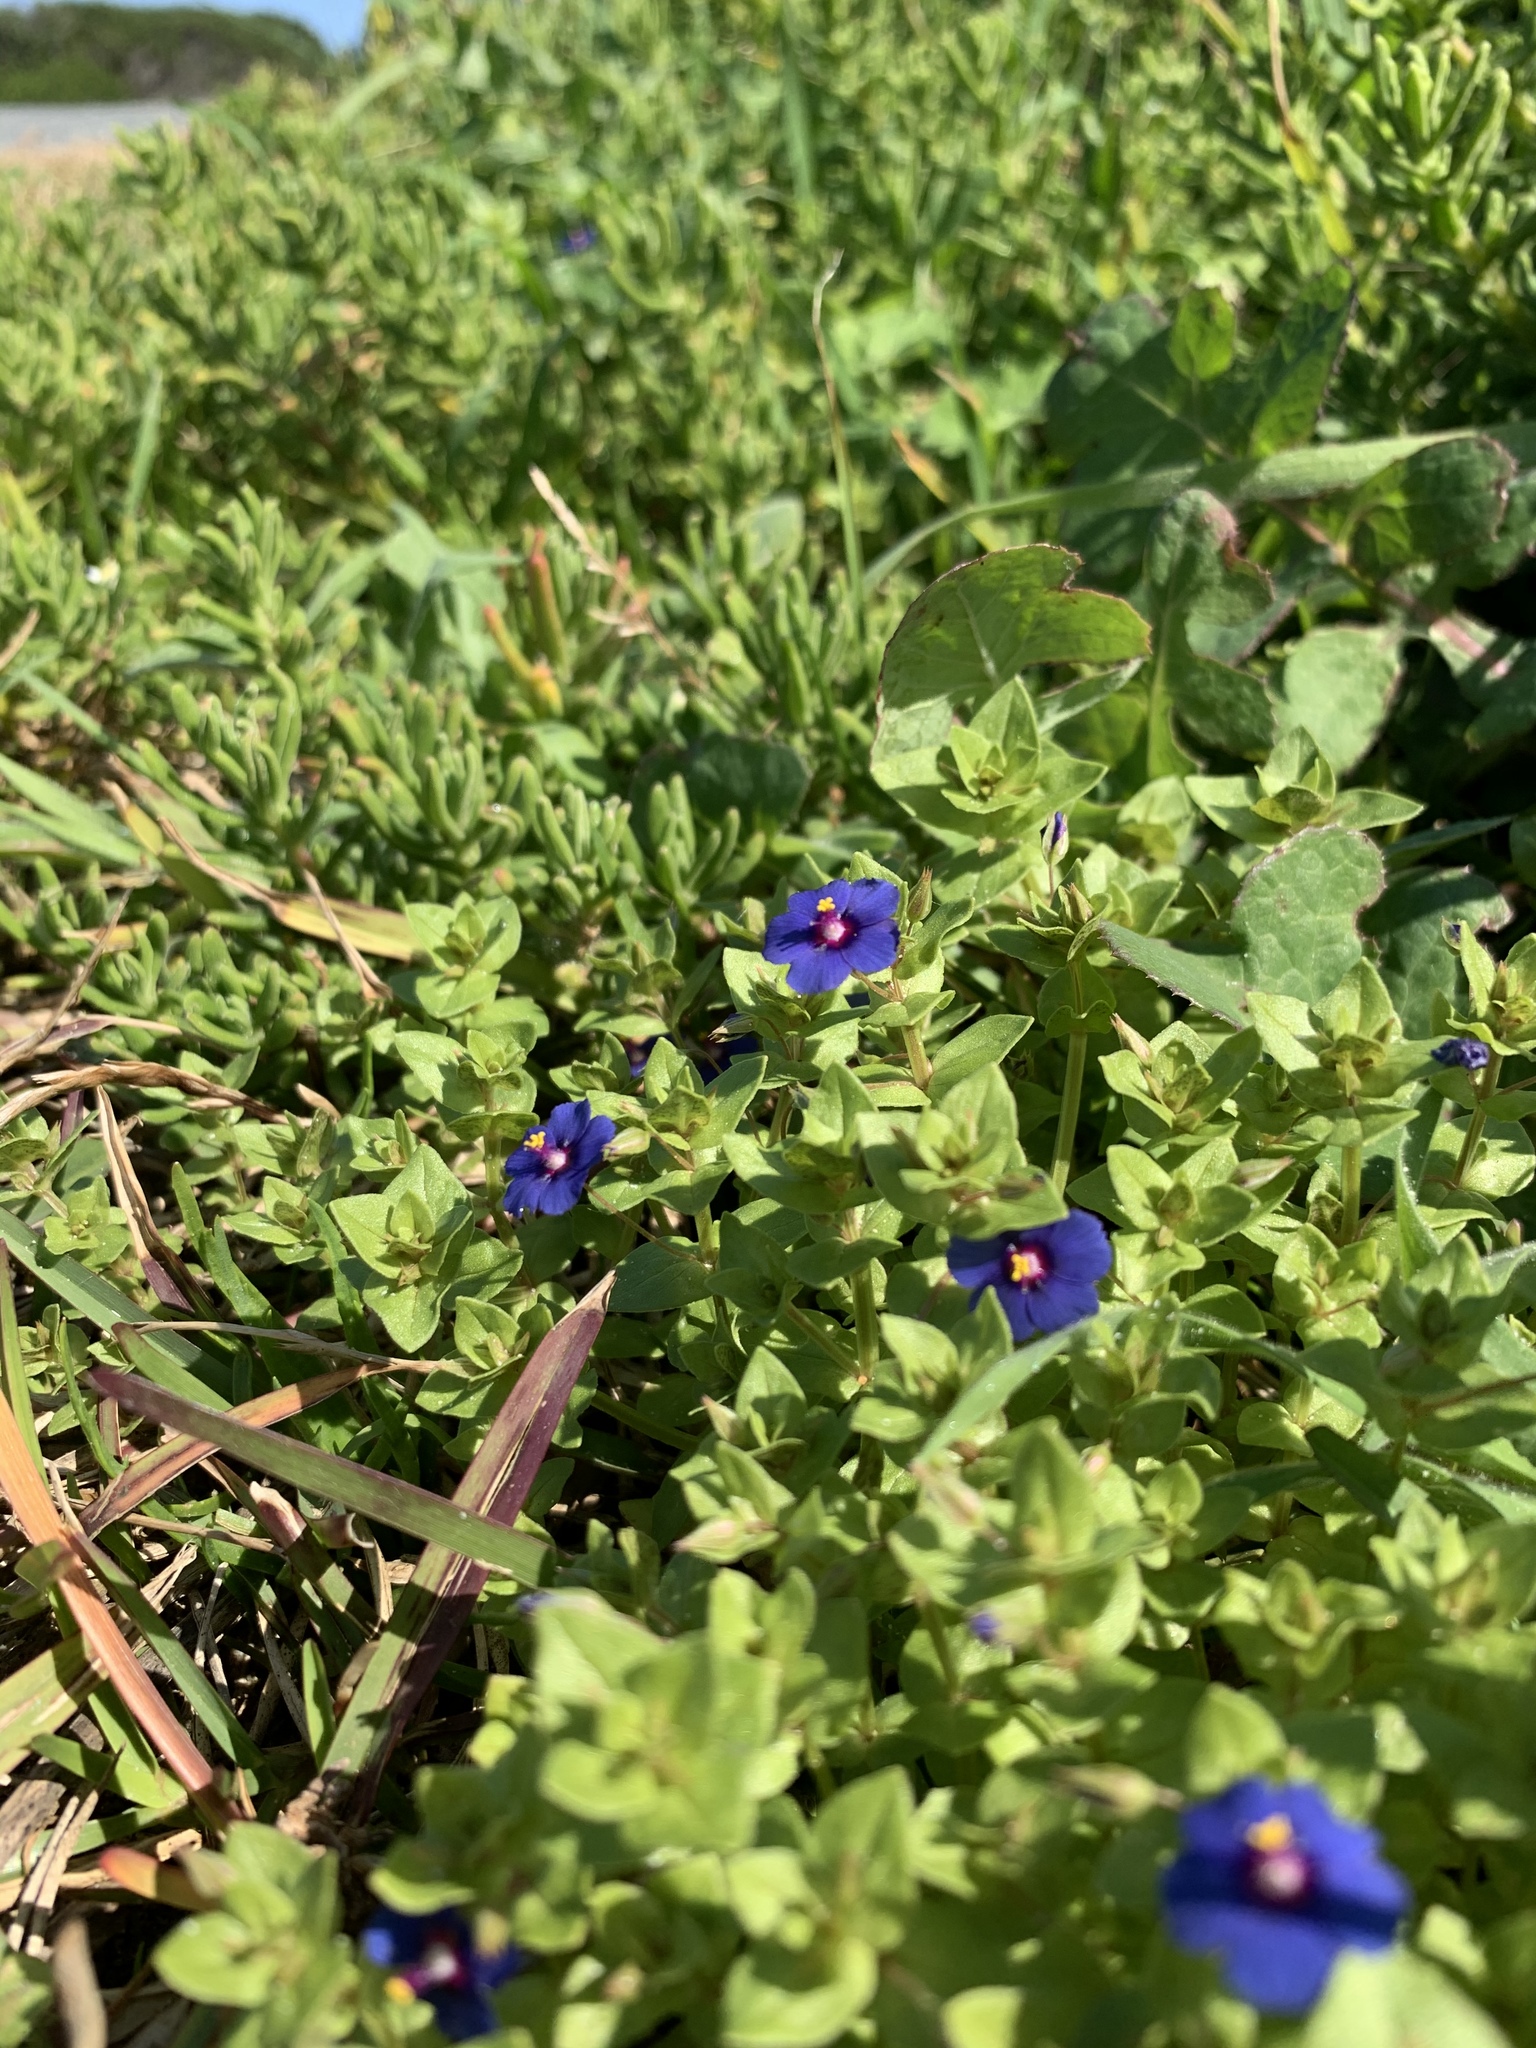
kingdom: Plantae
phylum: Tracheophyta
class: Magnoliopsida
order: Ericales
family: Primulaceae
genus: Lysimachia
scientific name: Lysimachia loeflingii
